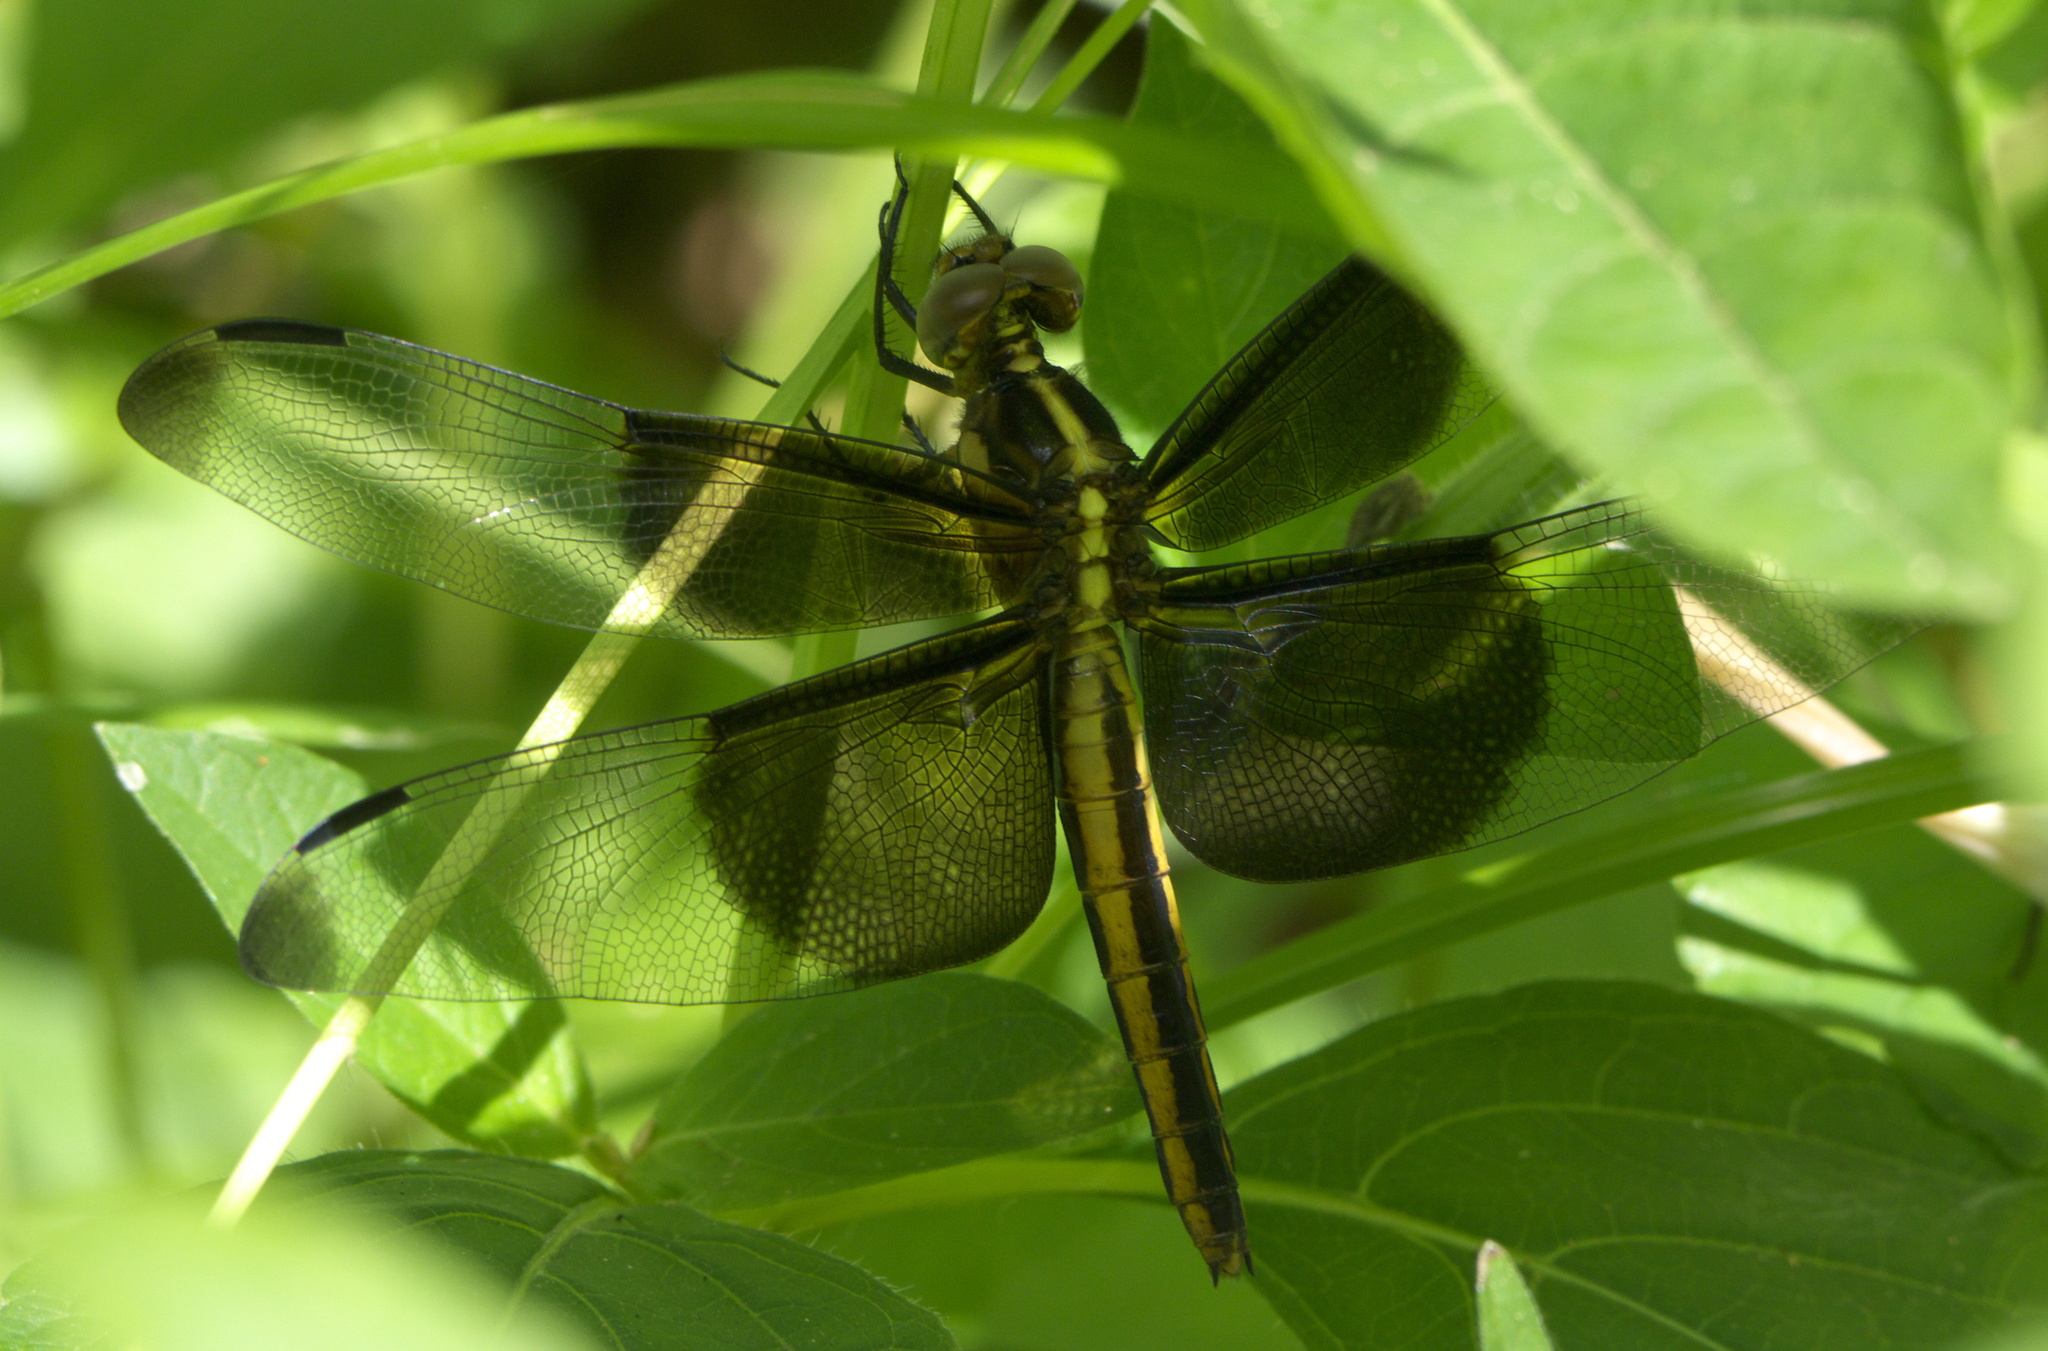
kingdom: Animalia
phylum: Arthropoda
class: Insecta
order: Odonata
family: Libellulidae
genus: Libellula
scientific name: Libellula luctuosa
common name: Widow skimmer
